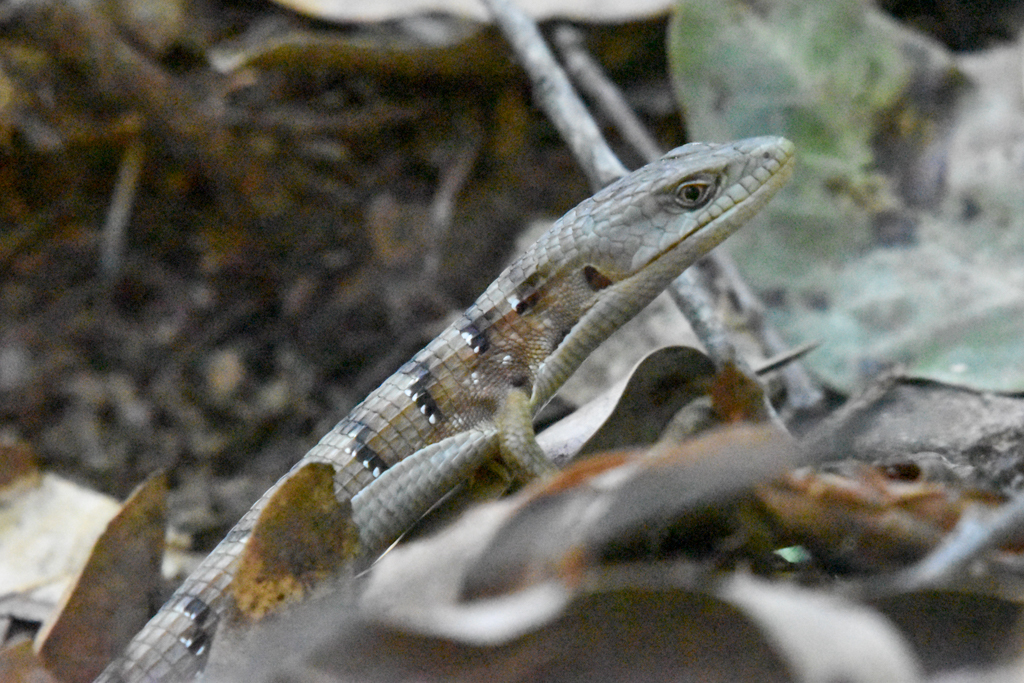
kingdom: Animalia
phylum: Chordata
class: Squamata
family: Anguidae
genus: Elgaria
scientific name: Elgaria multicarinata
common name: Southern alligator lizard
